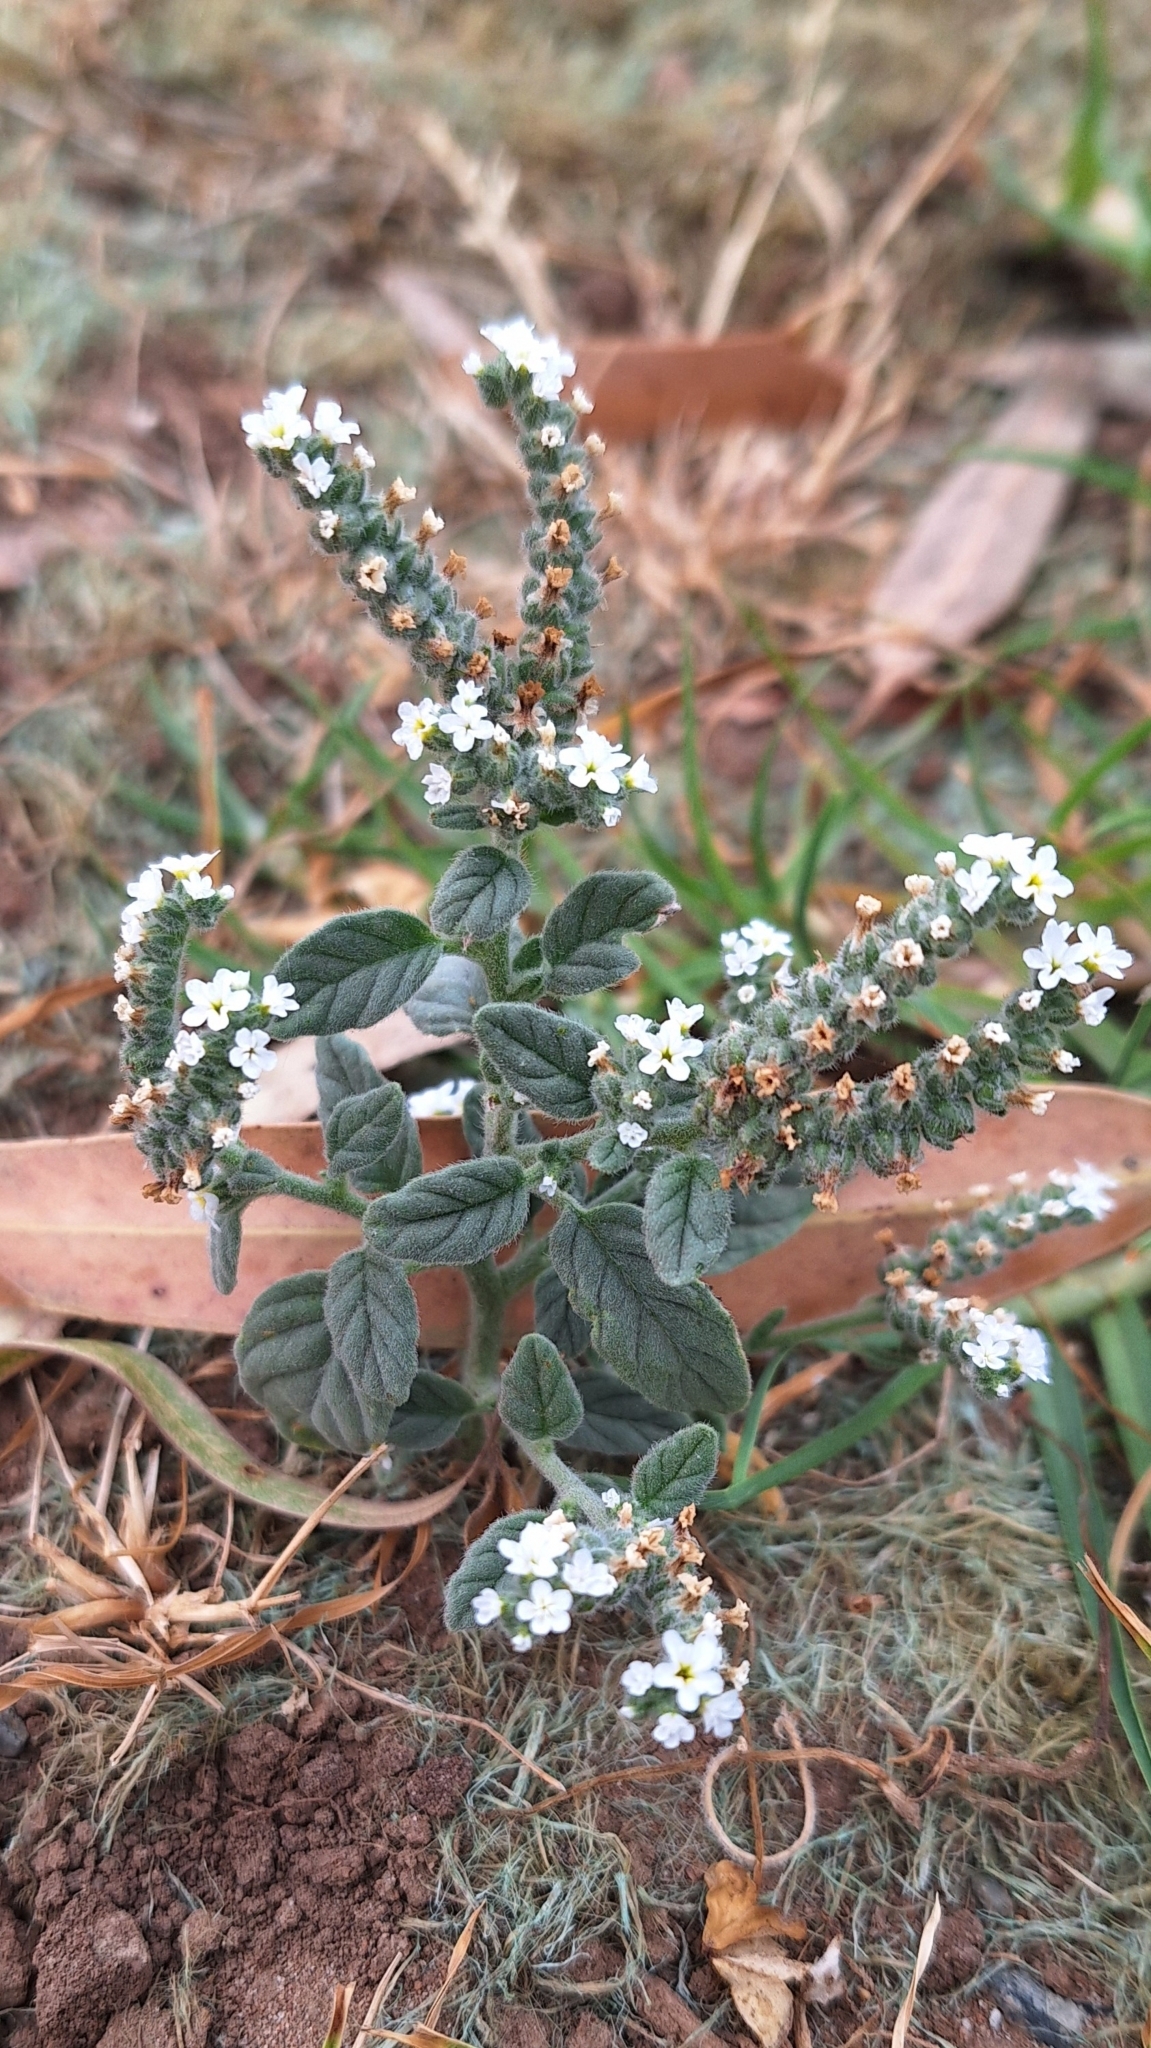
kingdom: Plantae
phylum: Tracheophyta
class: Magnoliopsida
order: Boraginales
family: Heliotropiaceae
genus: Heliotropium
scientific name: Heliotropium europaeum
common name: European heliotrope
